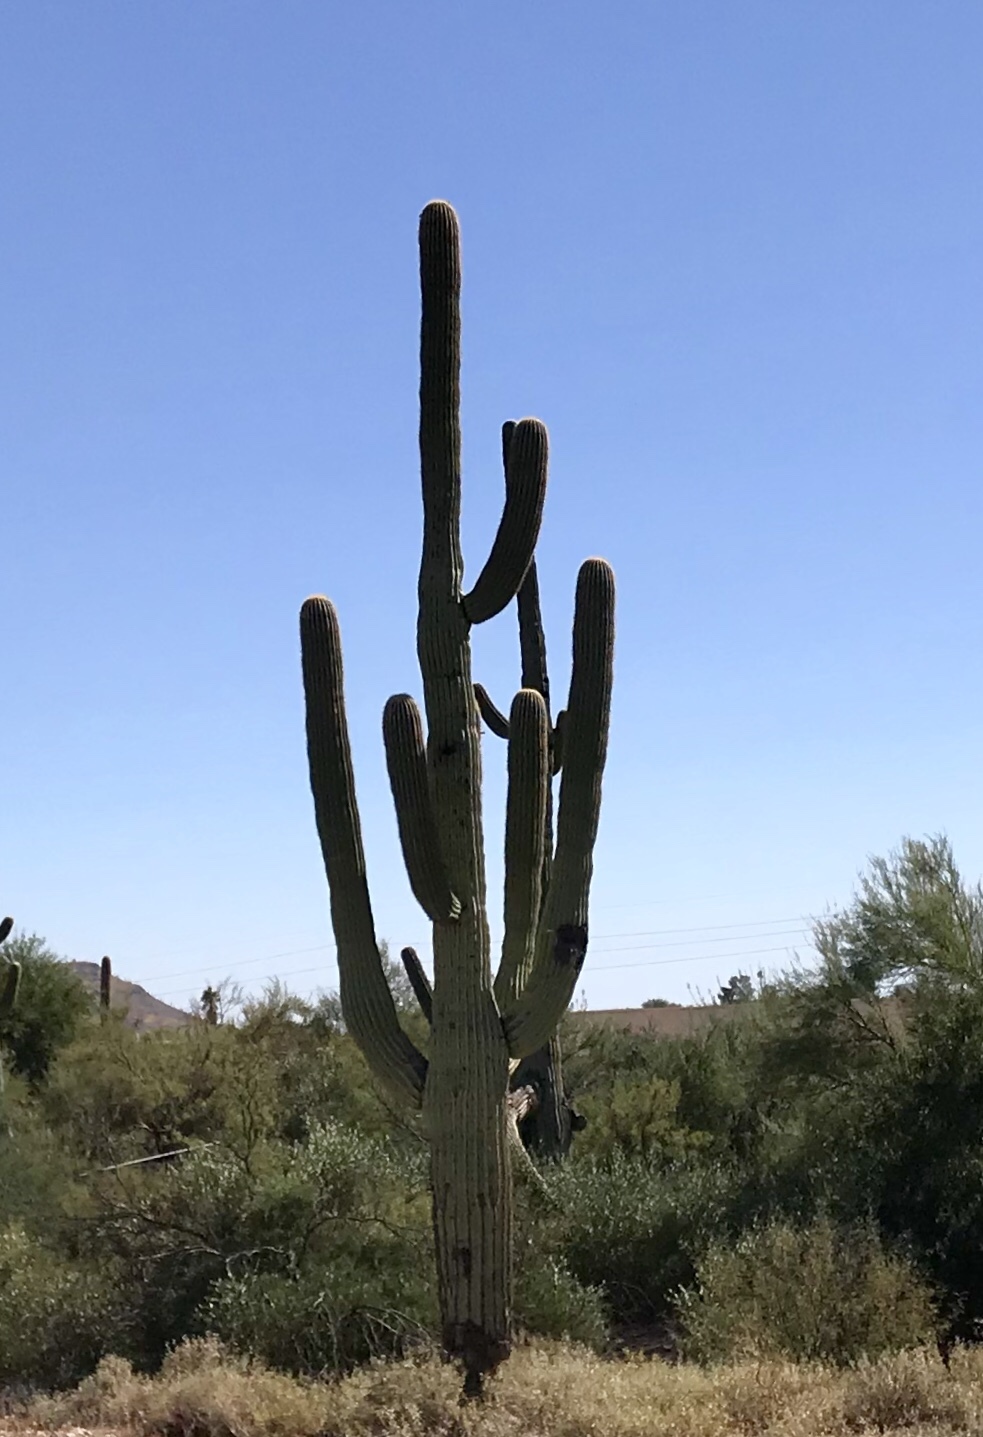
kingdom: Plantae
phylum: Tracheophyta
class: Magnoliopsida
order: Caryophyllales
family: Cactaceae
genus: Carnegiea
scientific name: Carnegiea gigantea
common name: Saguaro
